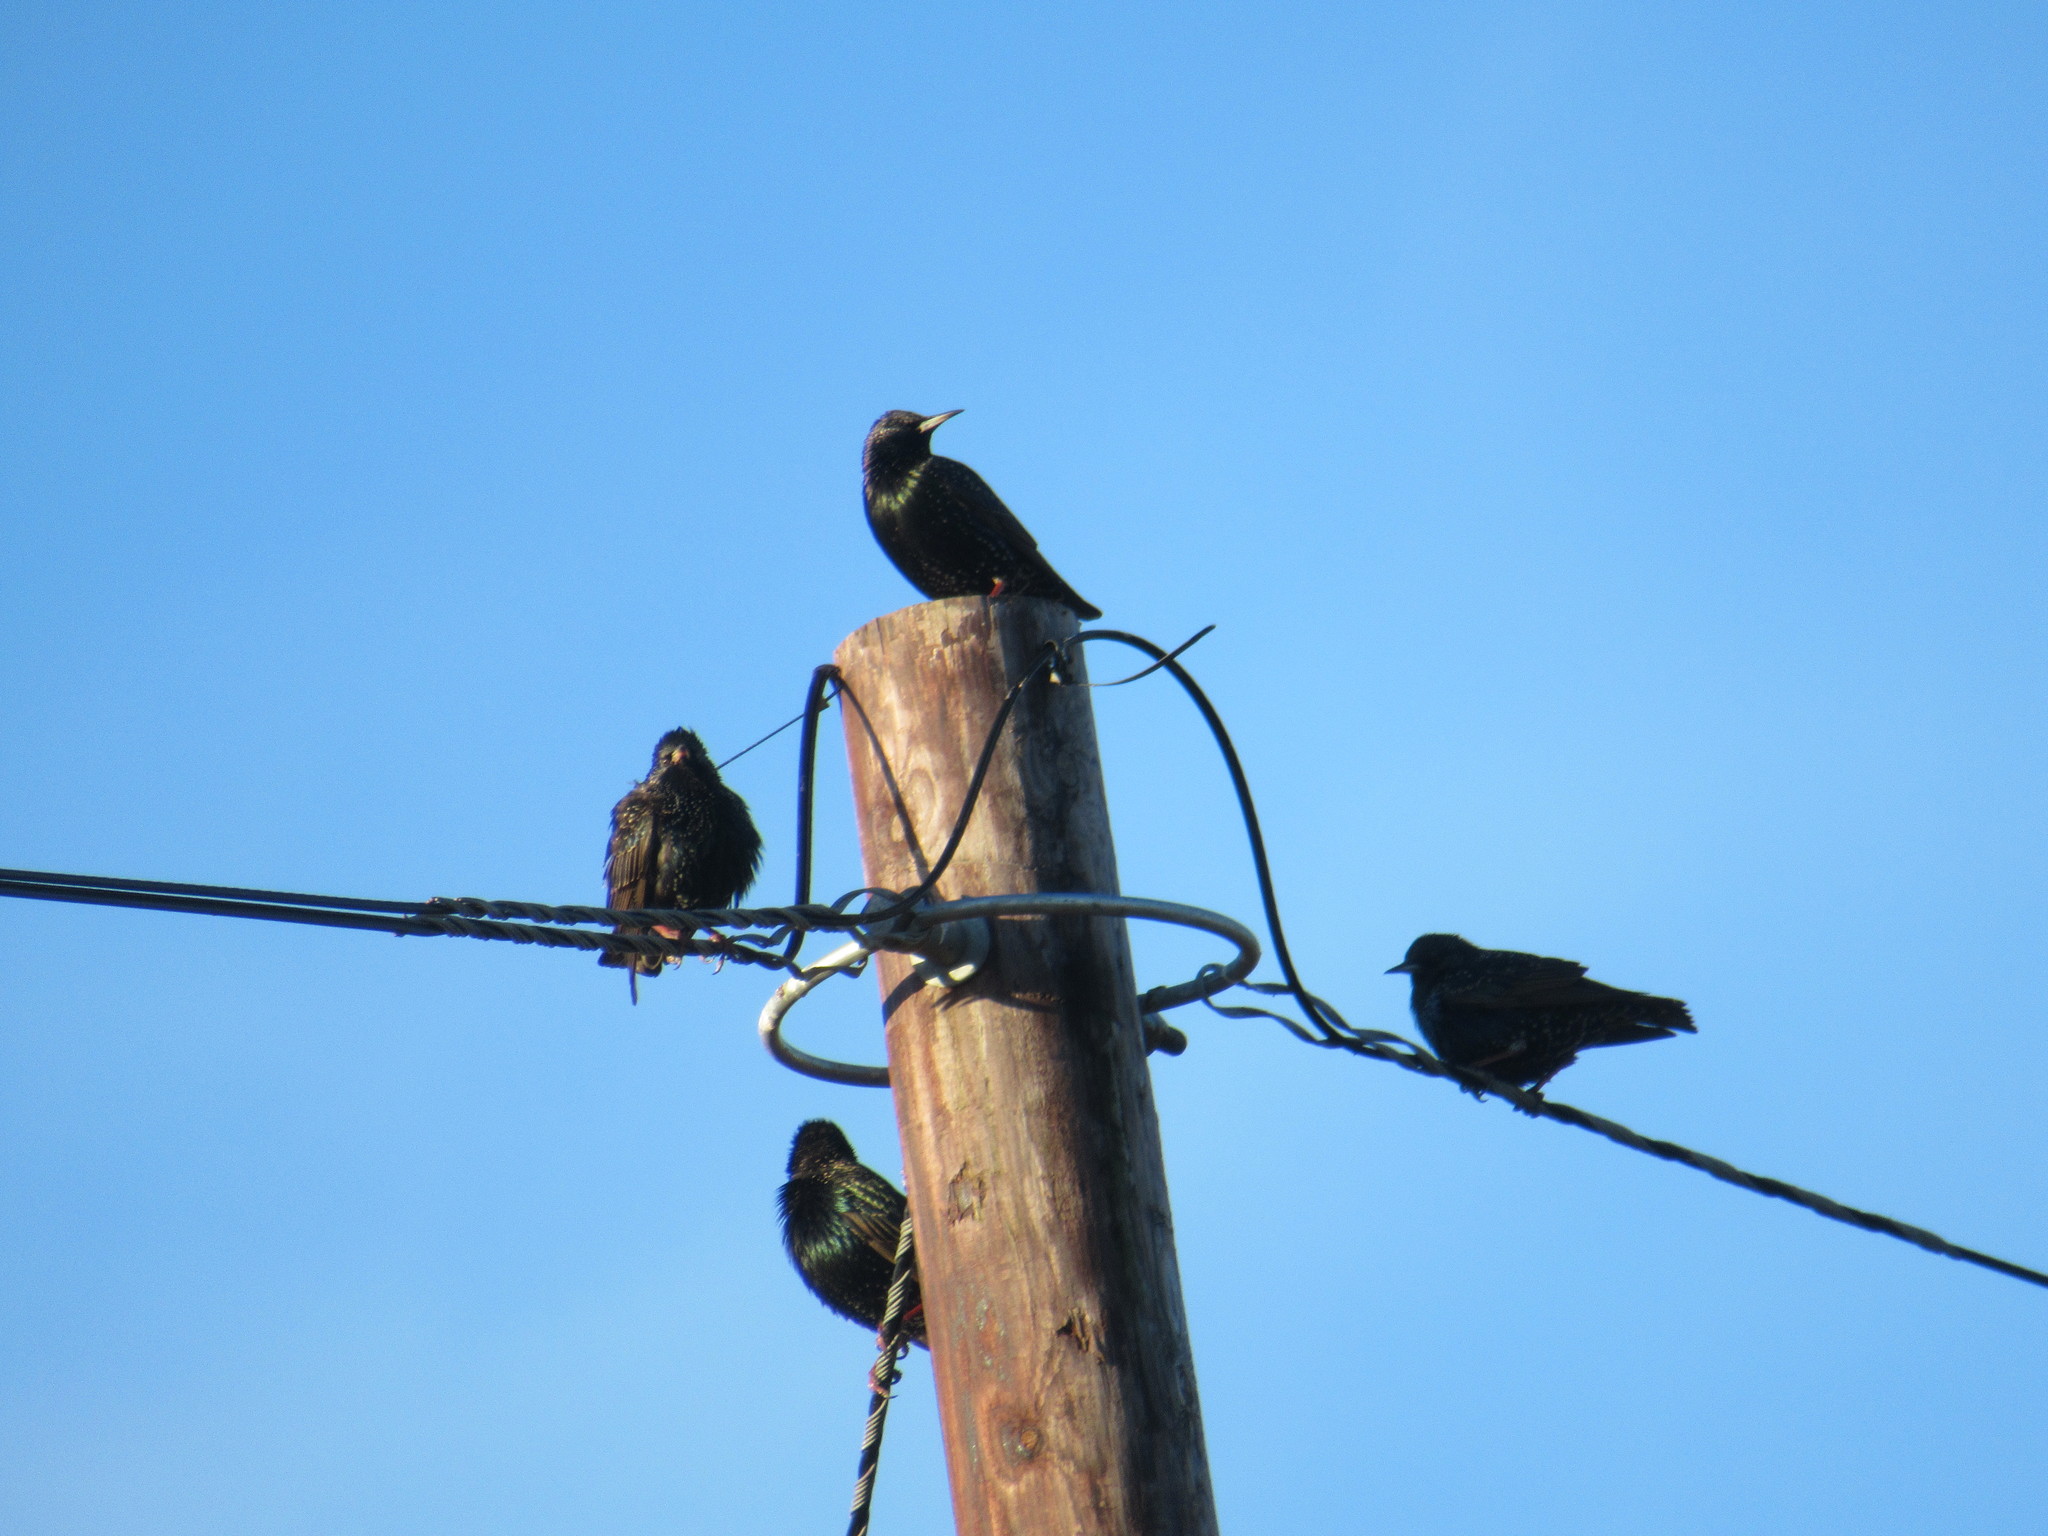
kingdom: Animalia
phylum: Chordata
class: Aves
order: Passeriformes
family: Sturnidae
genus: Sturnus
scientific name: Sturnus vulgaris
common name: Common starling
